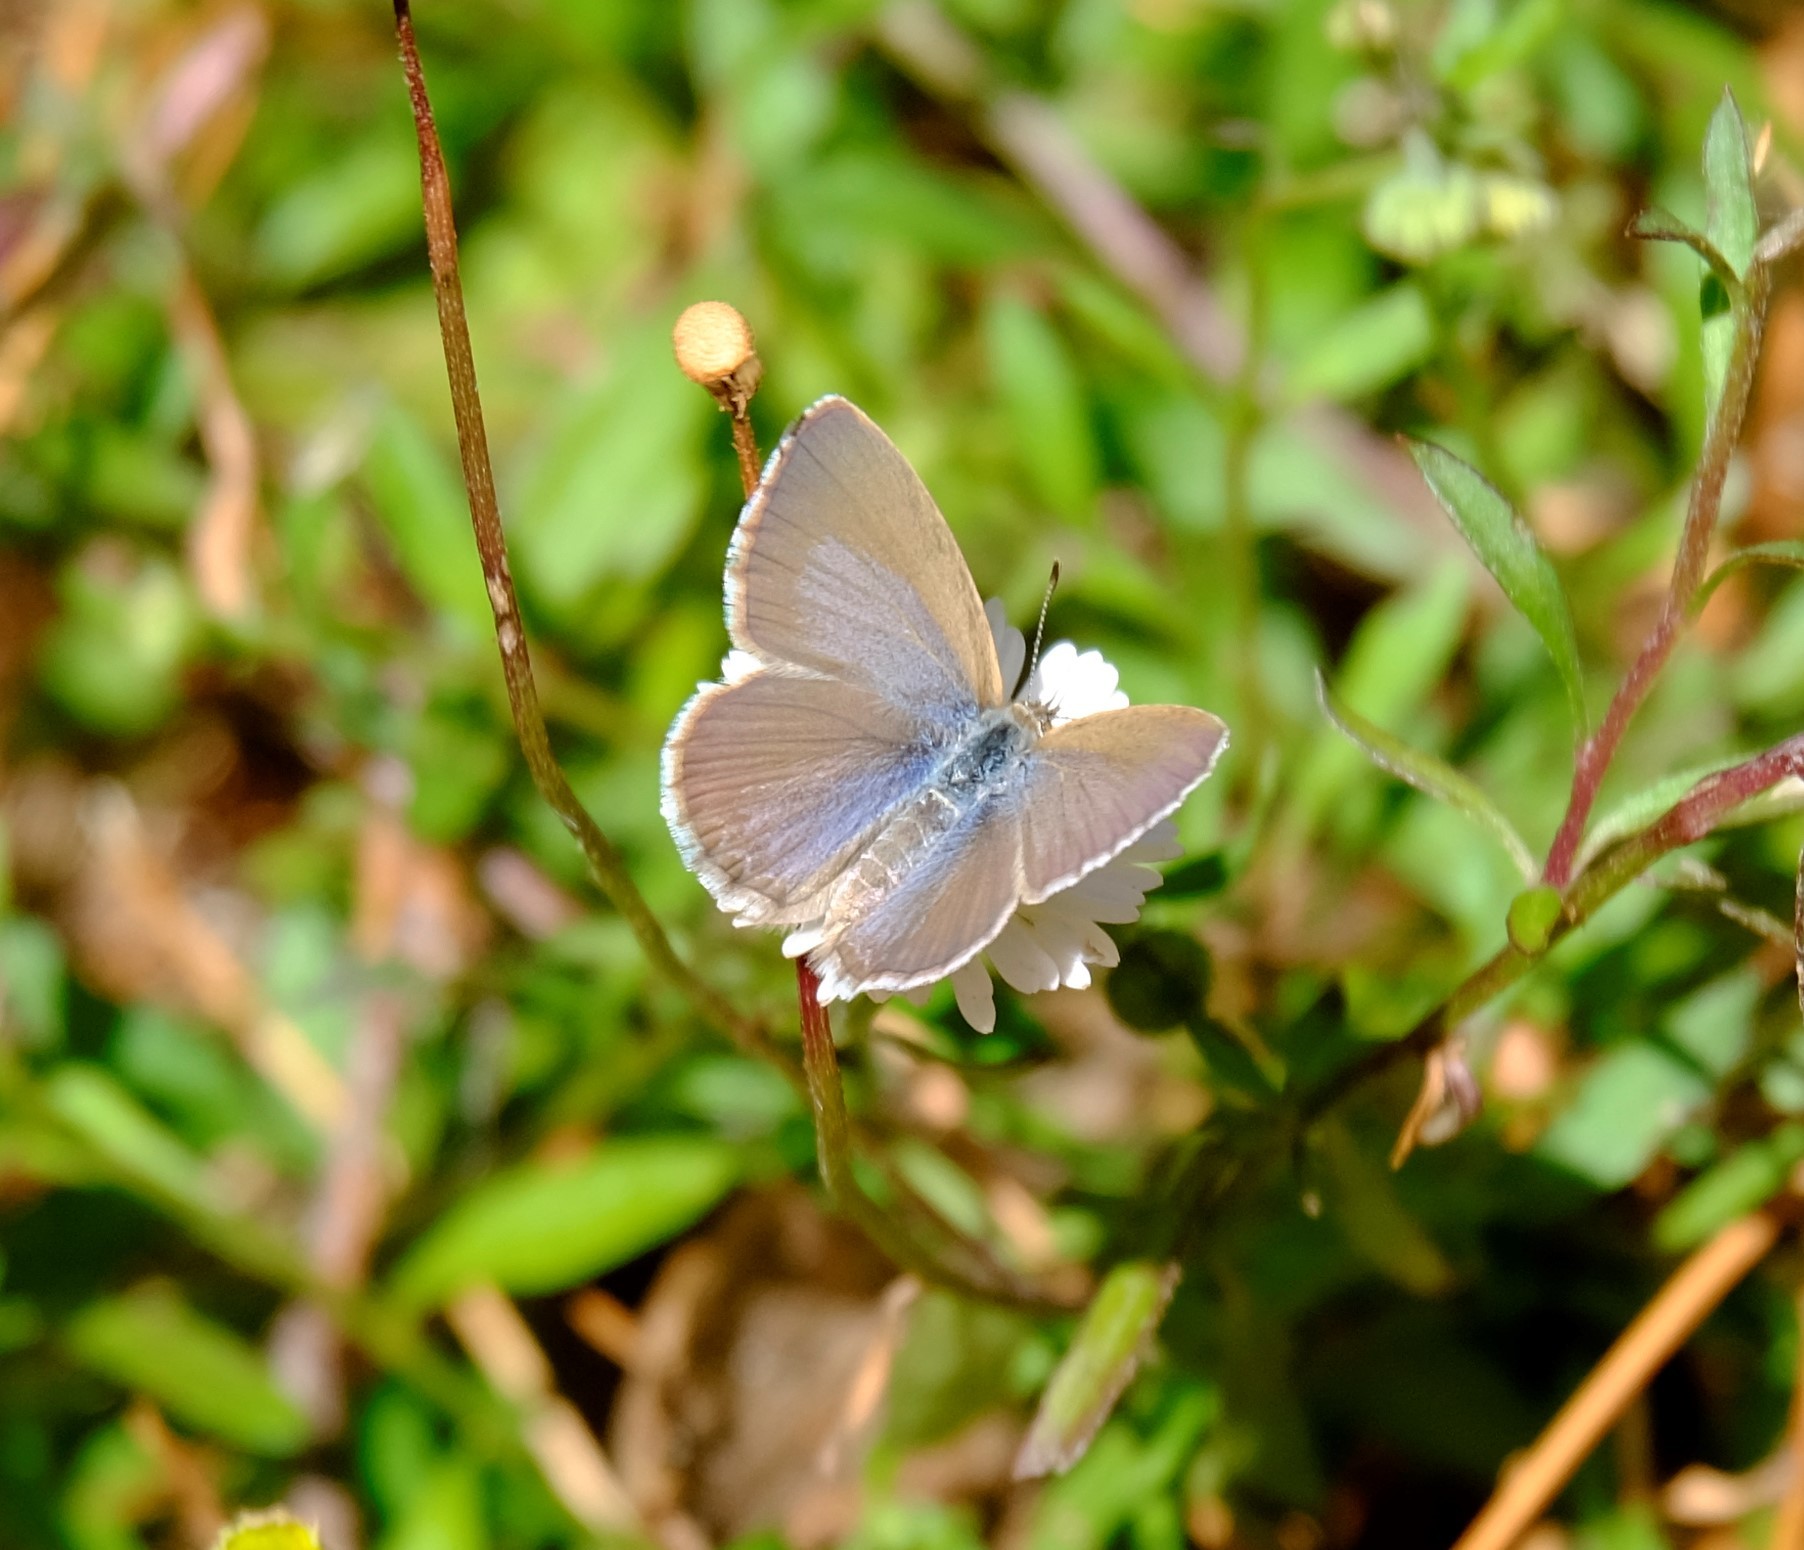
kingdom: Animalia
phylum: Arthropoda
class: Insecta
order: Lepidoptera
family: Lycaenidae
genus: Zizina
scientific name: Zizina labradus
